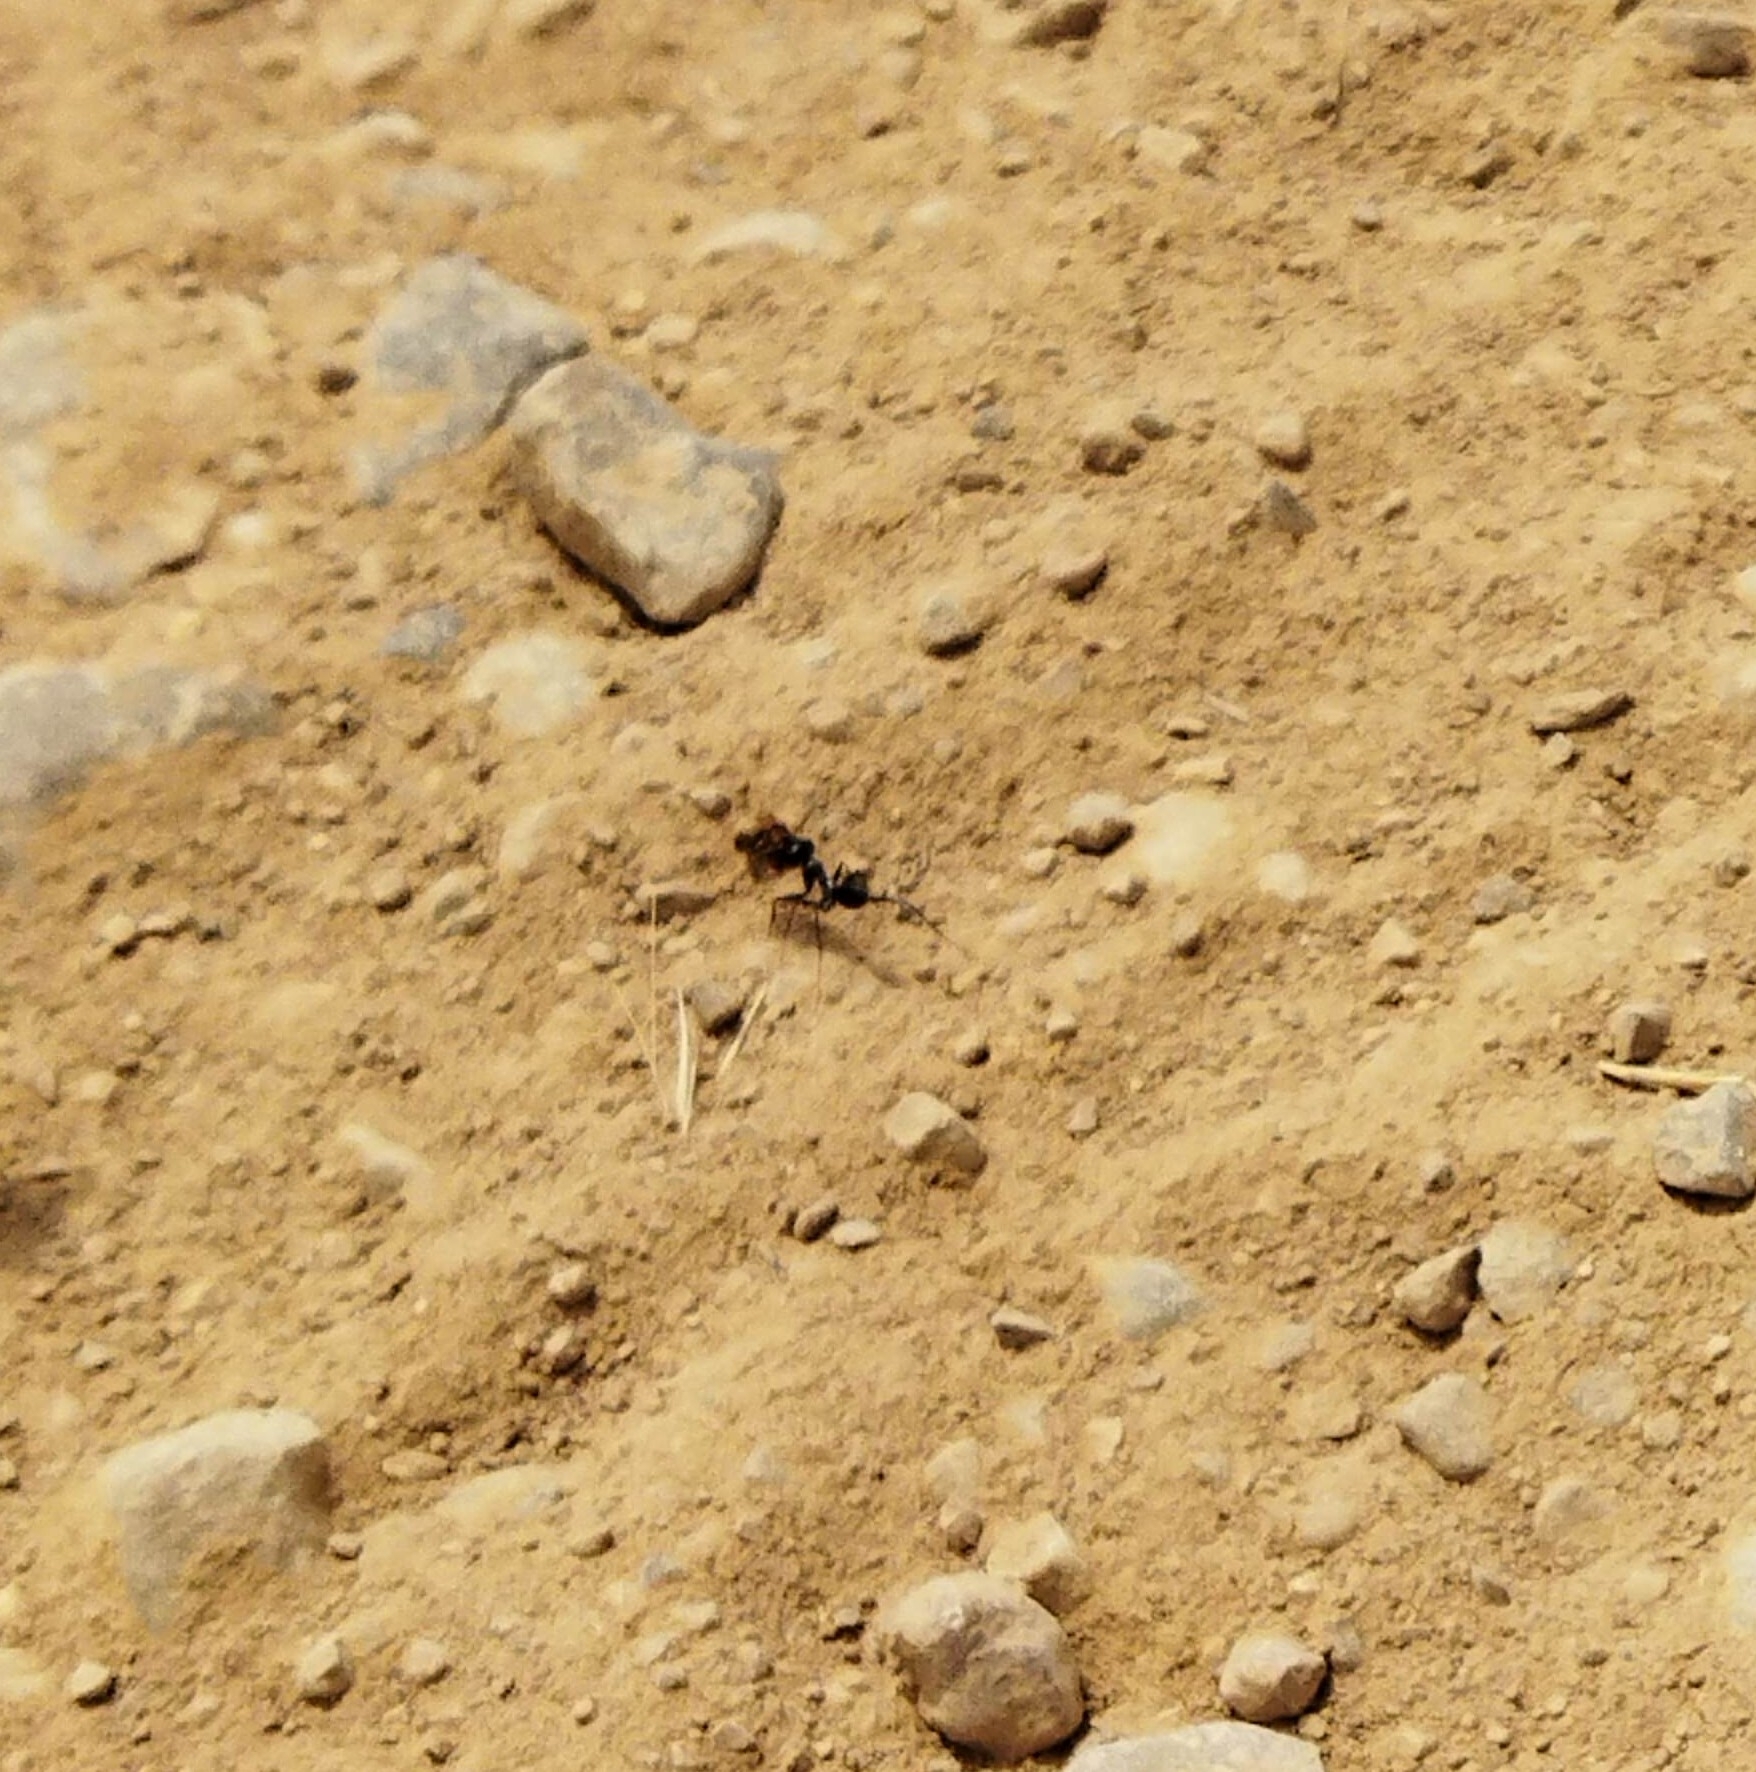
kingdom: Animalia
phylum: Arthropoda
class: Insecta
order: Hymenoptera
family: Formicidae
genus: Cataglyphis
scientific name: Cataglyphis ibericus
